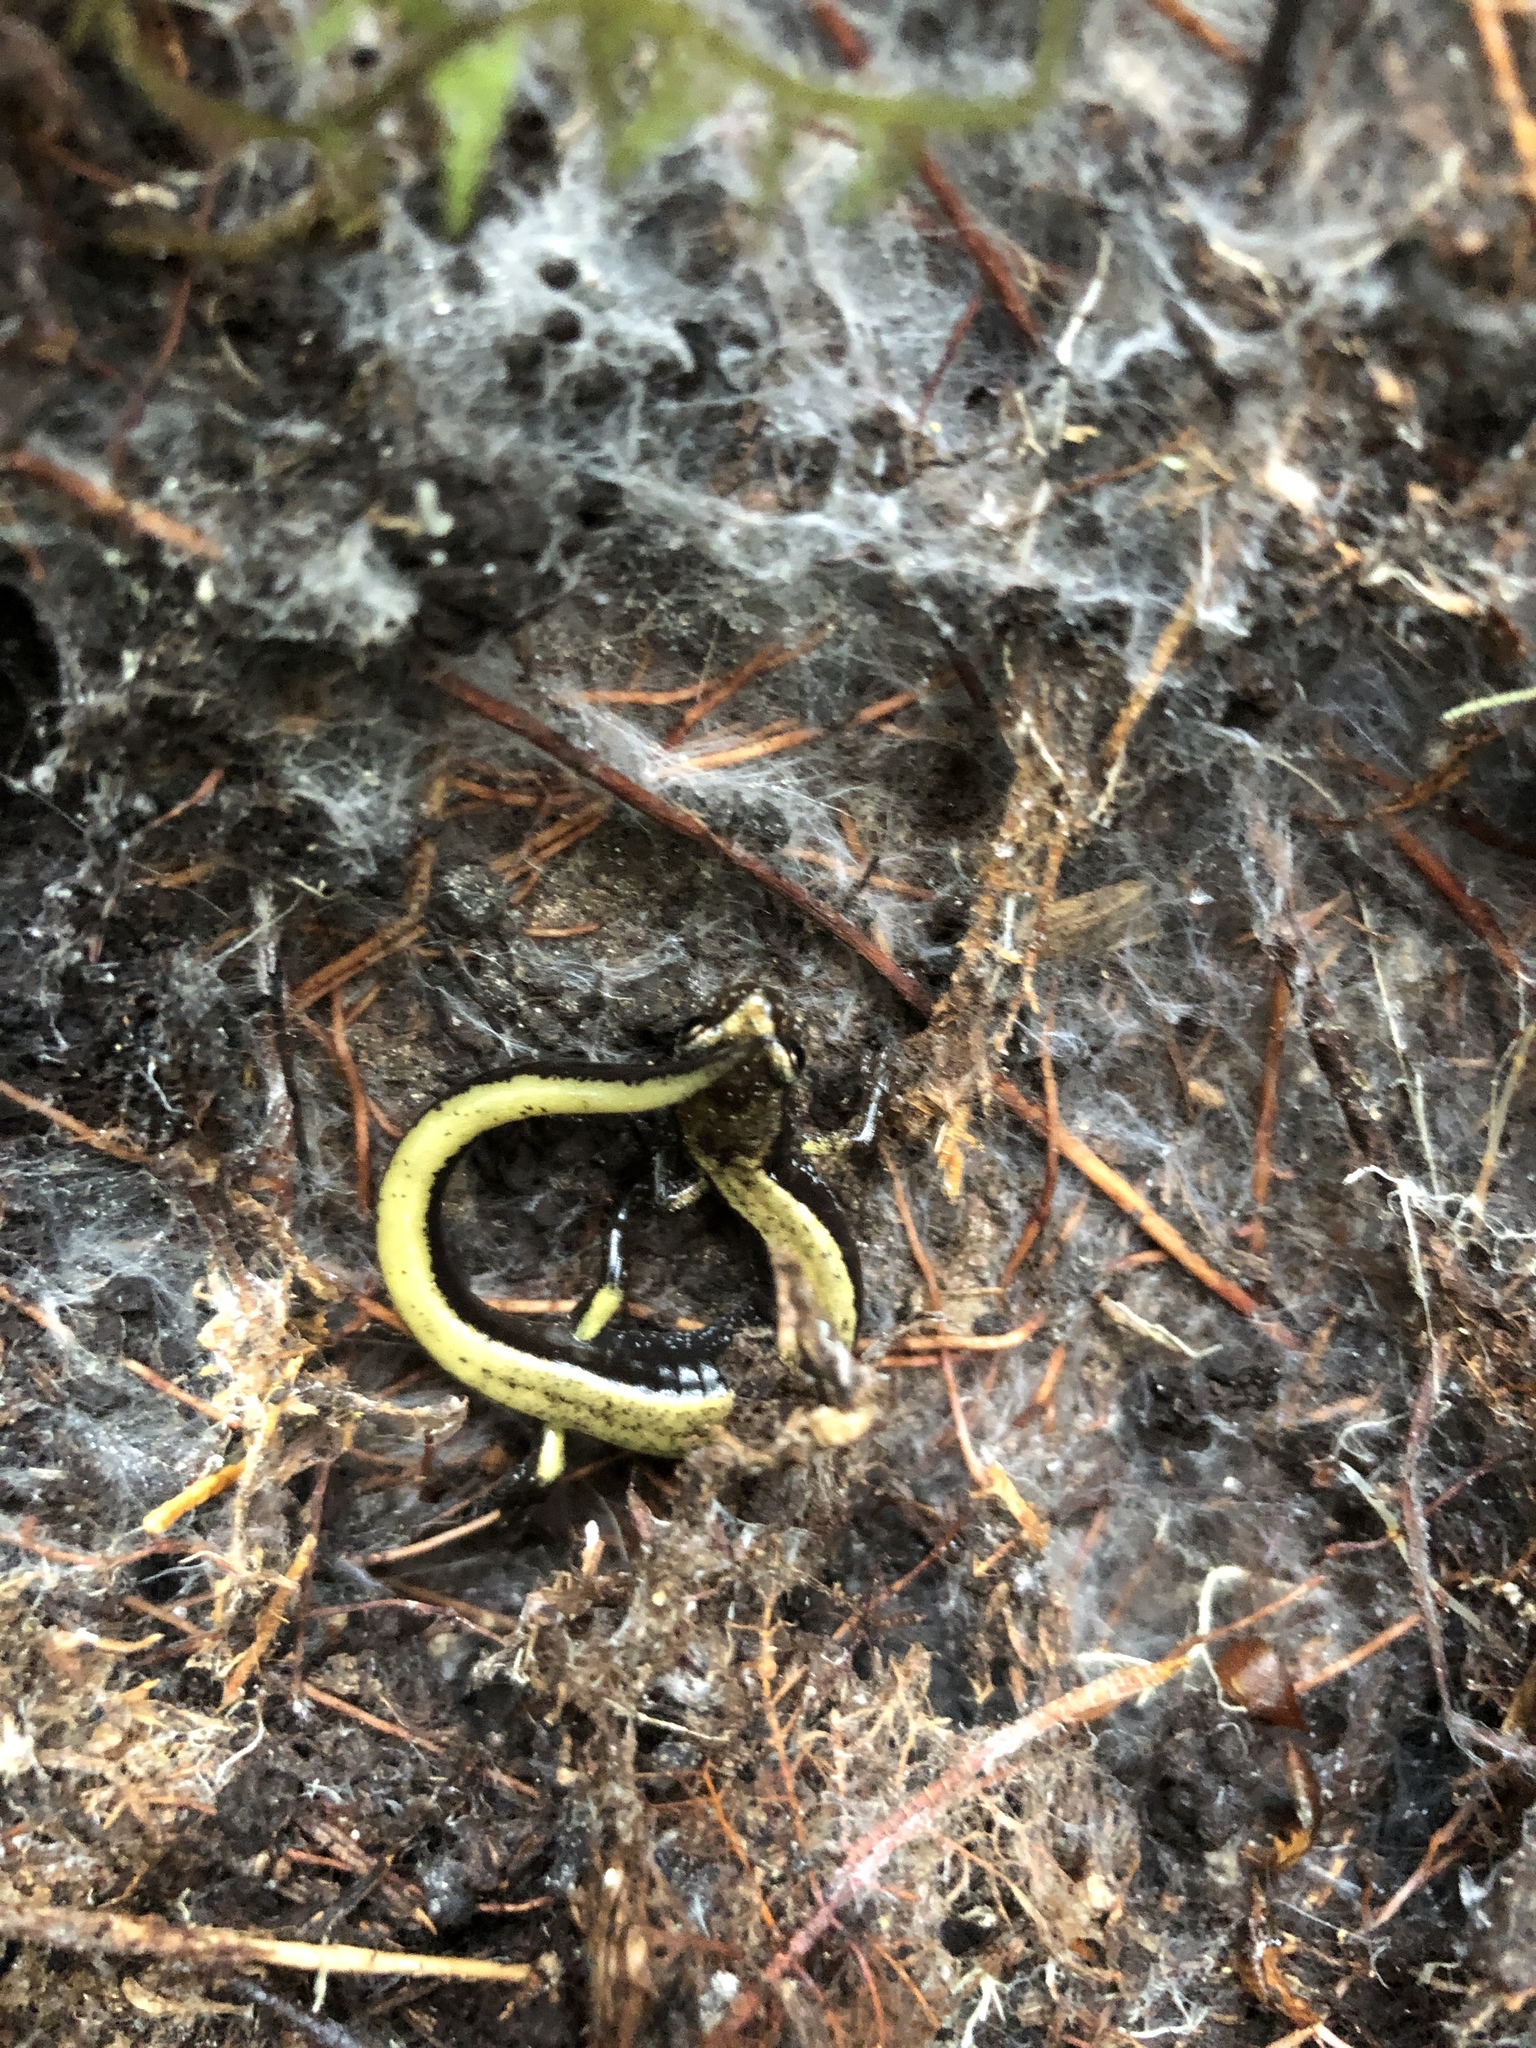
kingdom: Animalia
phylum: Chordata
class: Amphibia
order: Caudata
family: Plethodontidae
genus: Plethodon
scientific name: Plethodon vehiculum
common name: Western red-backed salamander
